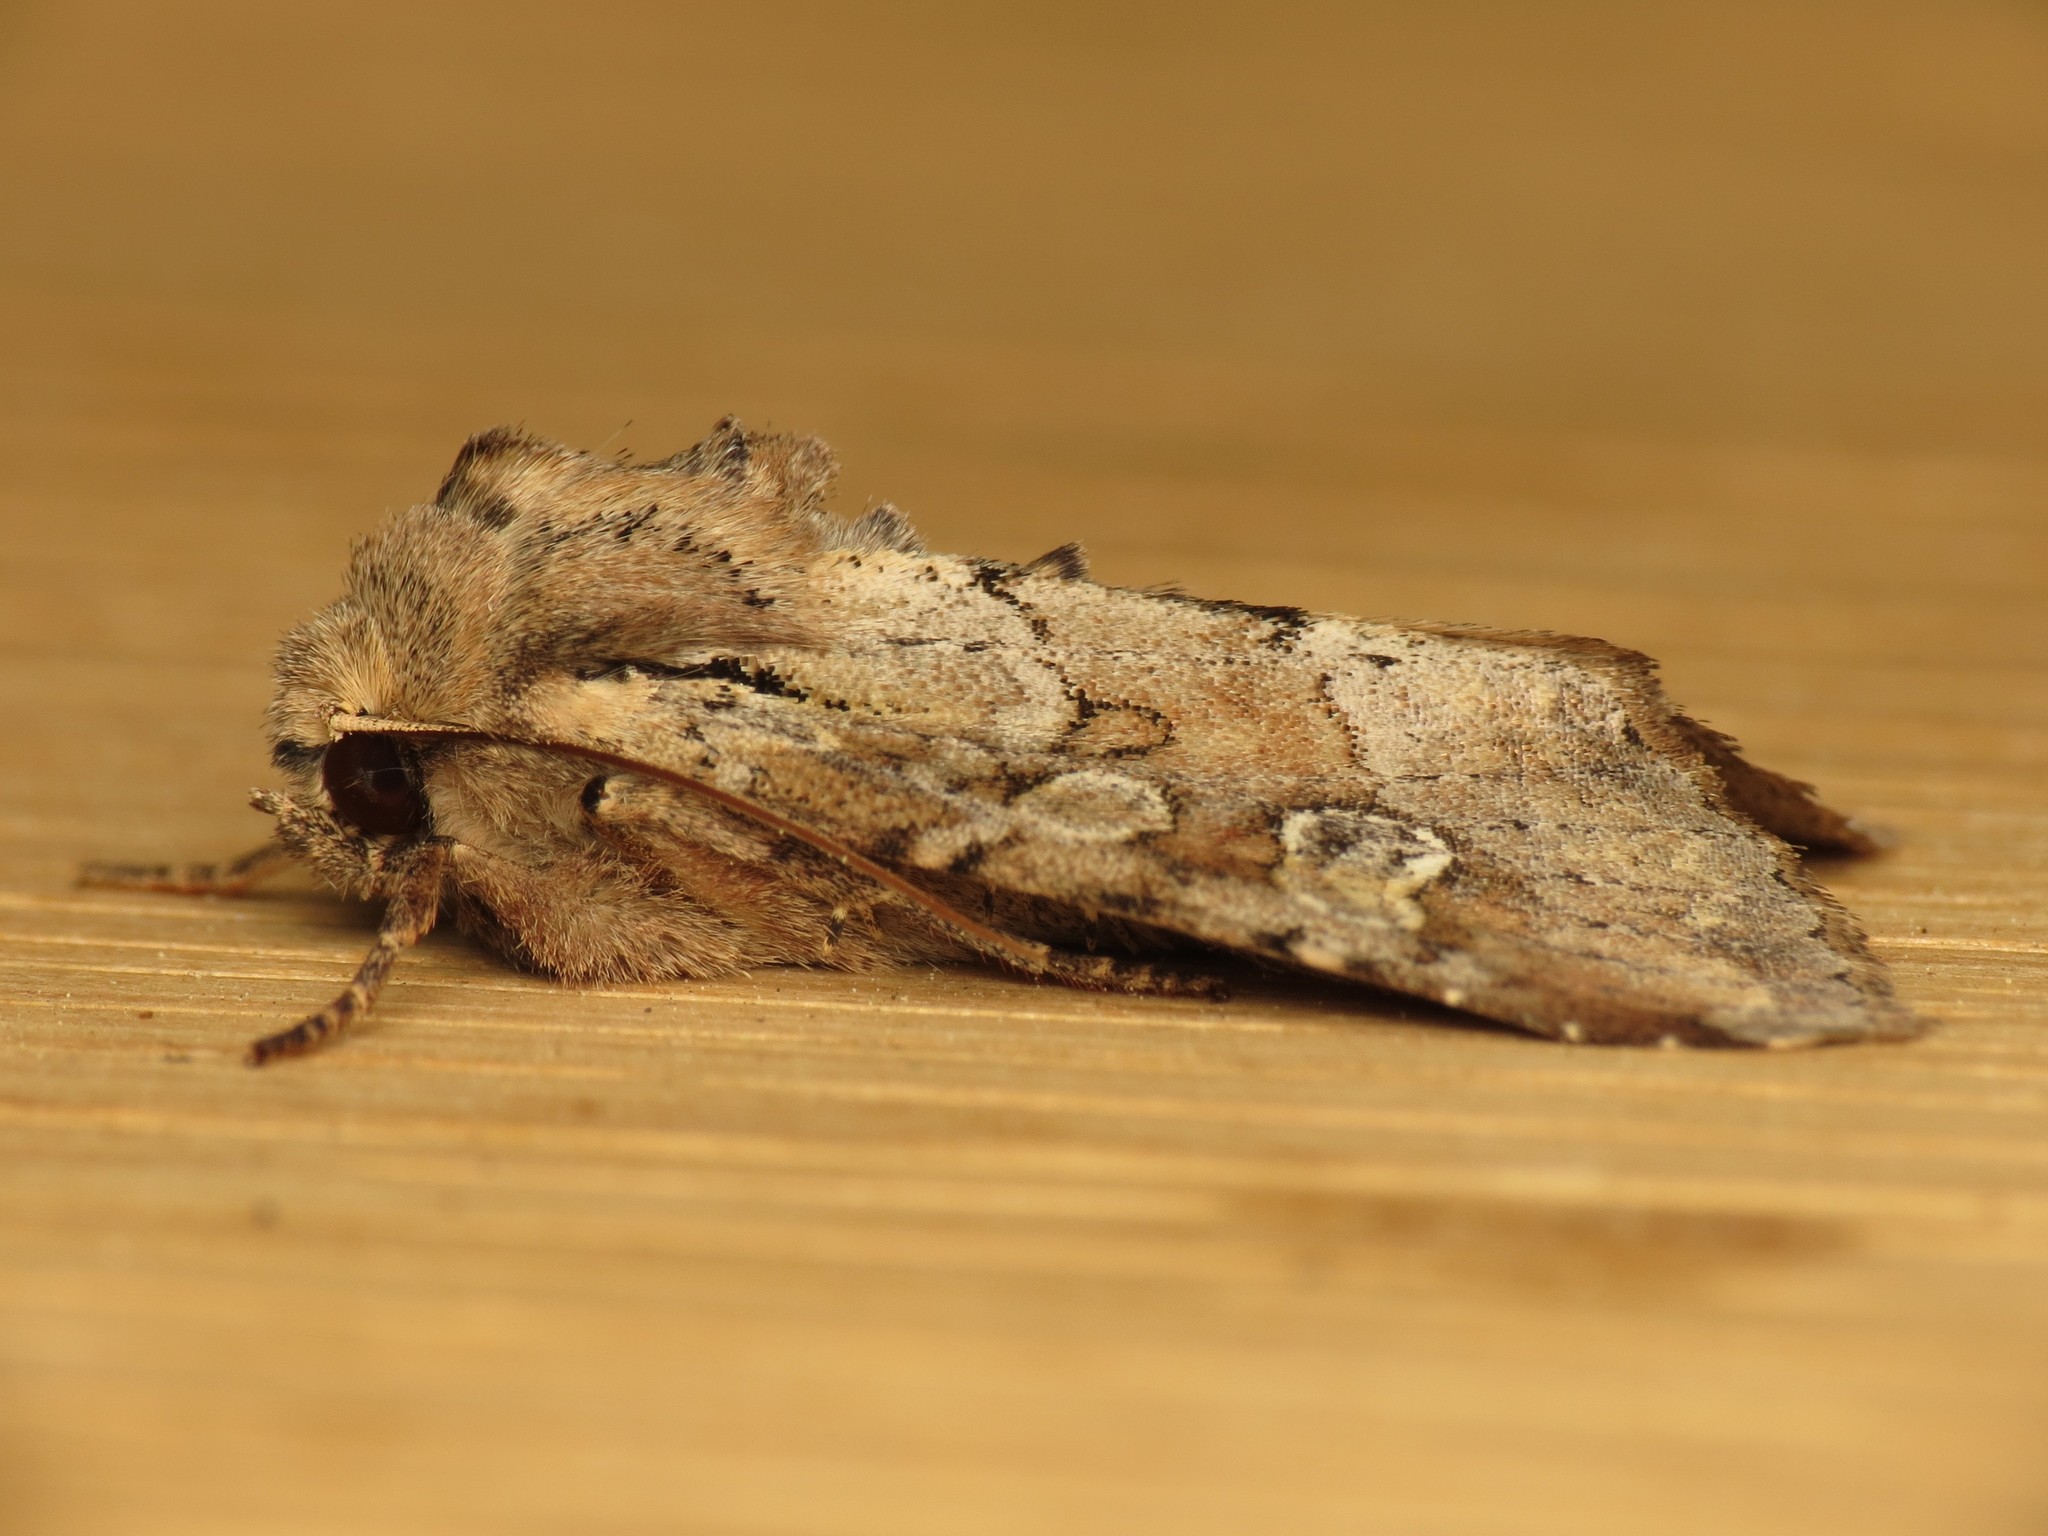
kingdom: Animalia
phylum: Arthropoda
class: Insecta
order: Lepidoptera
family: Noctuidae
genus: Apamea
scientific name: Apamea sordens
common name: Rustic shoulder-knot
